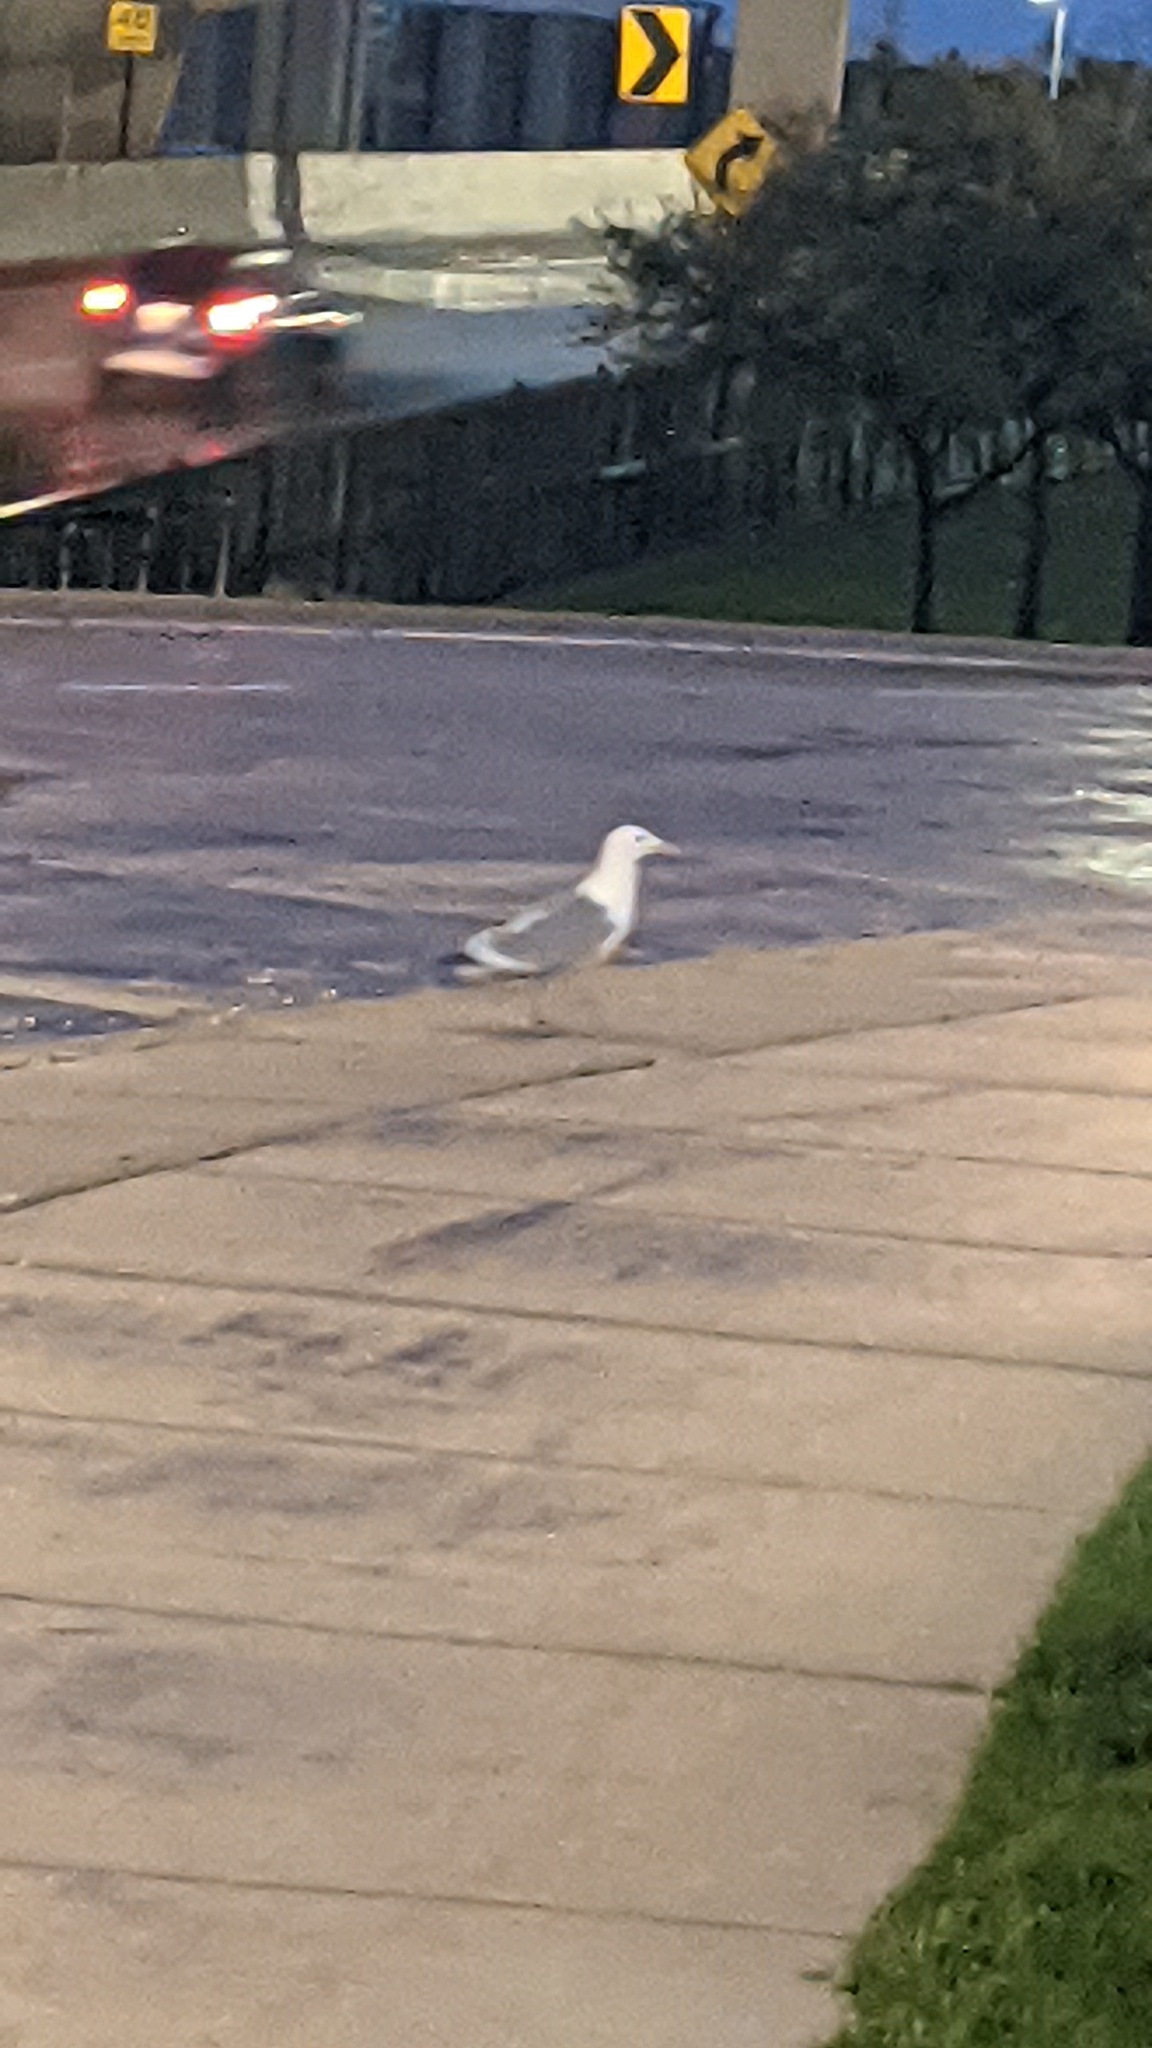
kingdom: Animalia
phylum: Chordata
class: Aves
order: Charadriiformes
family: Laridae
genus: Larus
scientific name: Larus argentatus
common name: Herring gull
